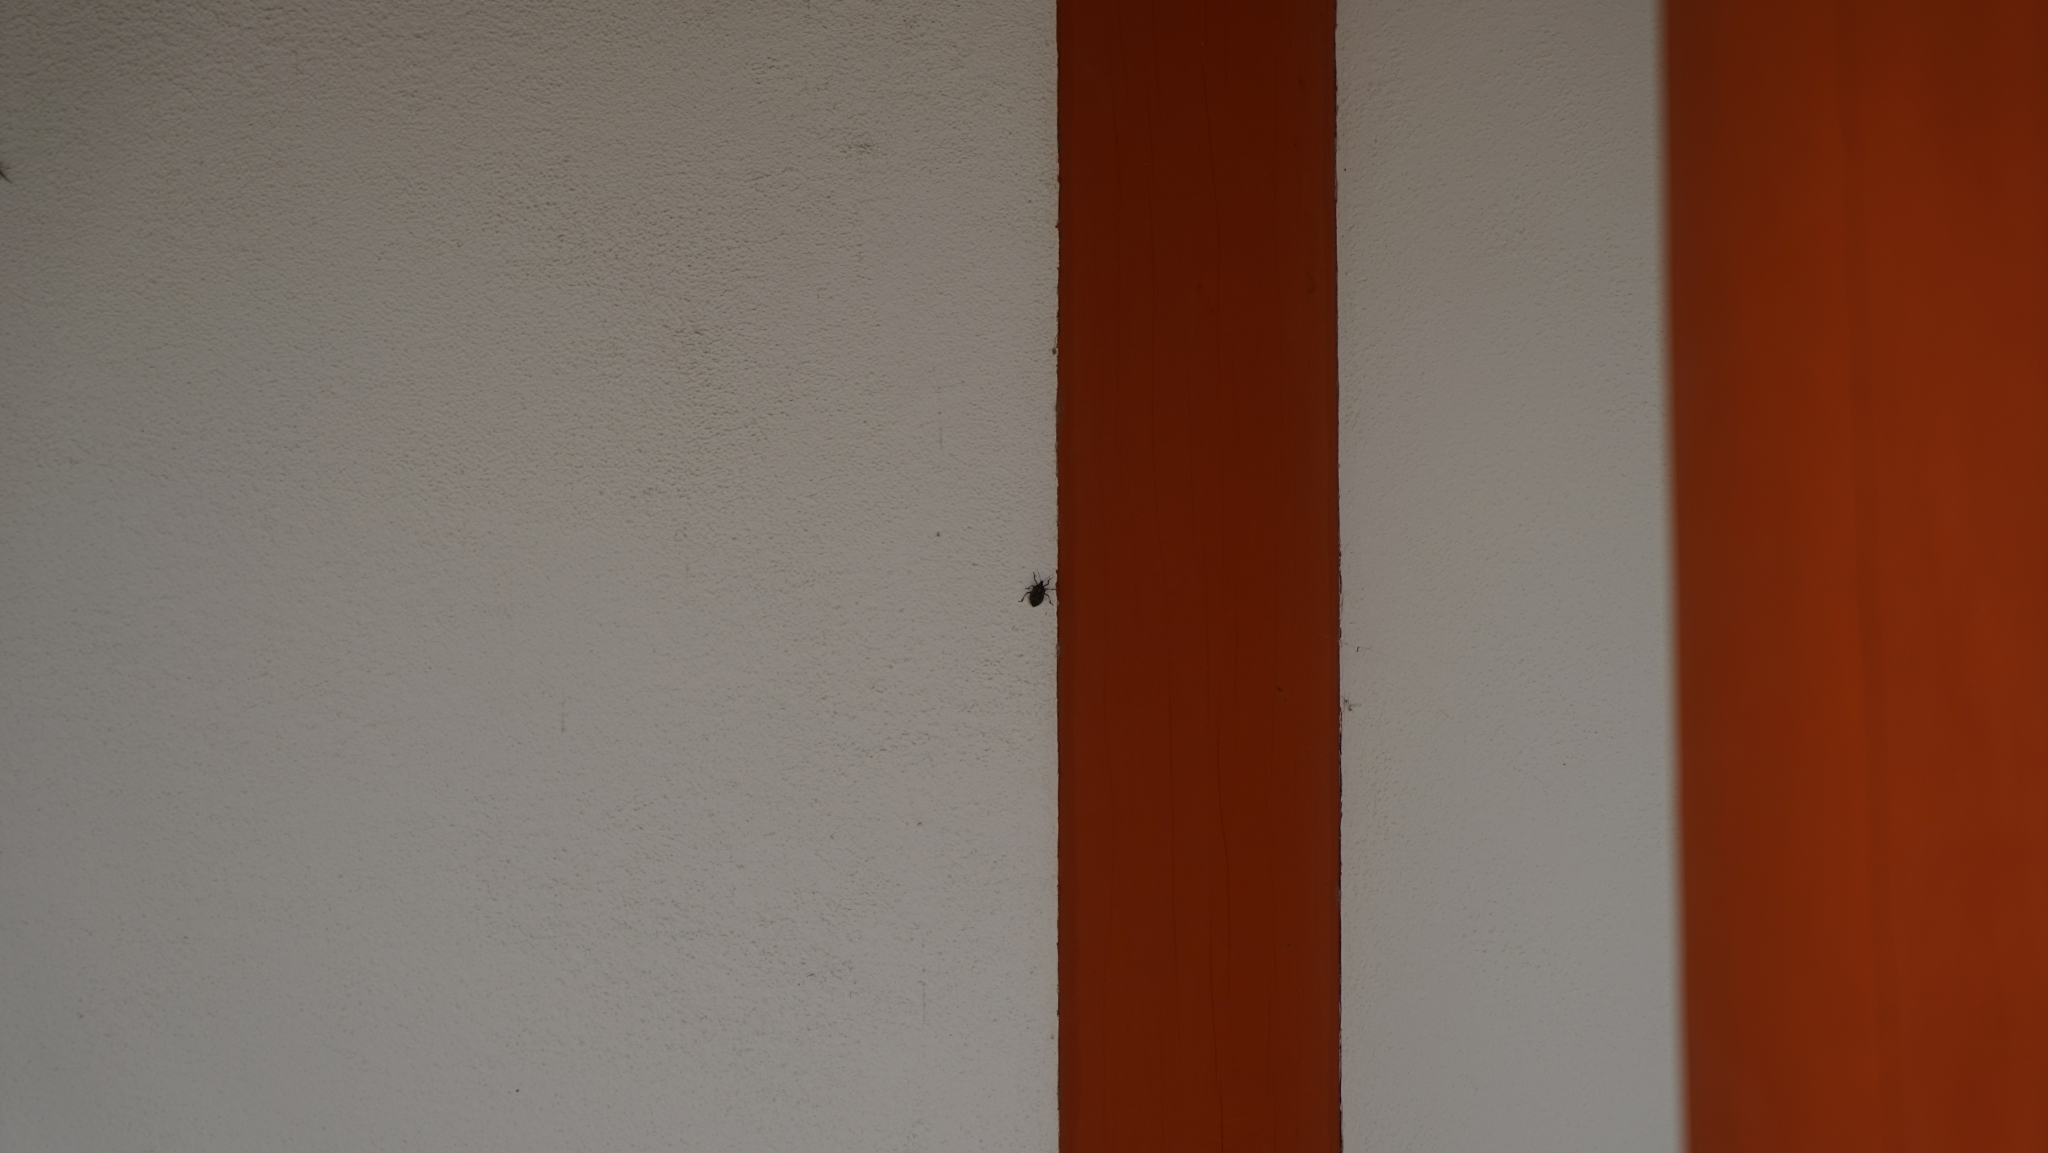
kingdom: Animalia
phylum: Arthropoda
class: Insecta
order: Hemiptera
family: Pentatomidae
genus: Erthesina
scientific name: Erthesina fullo
